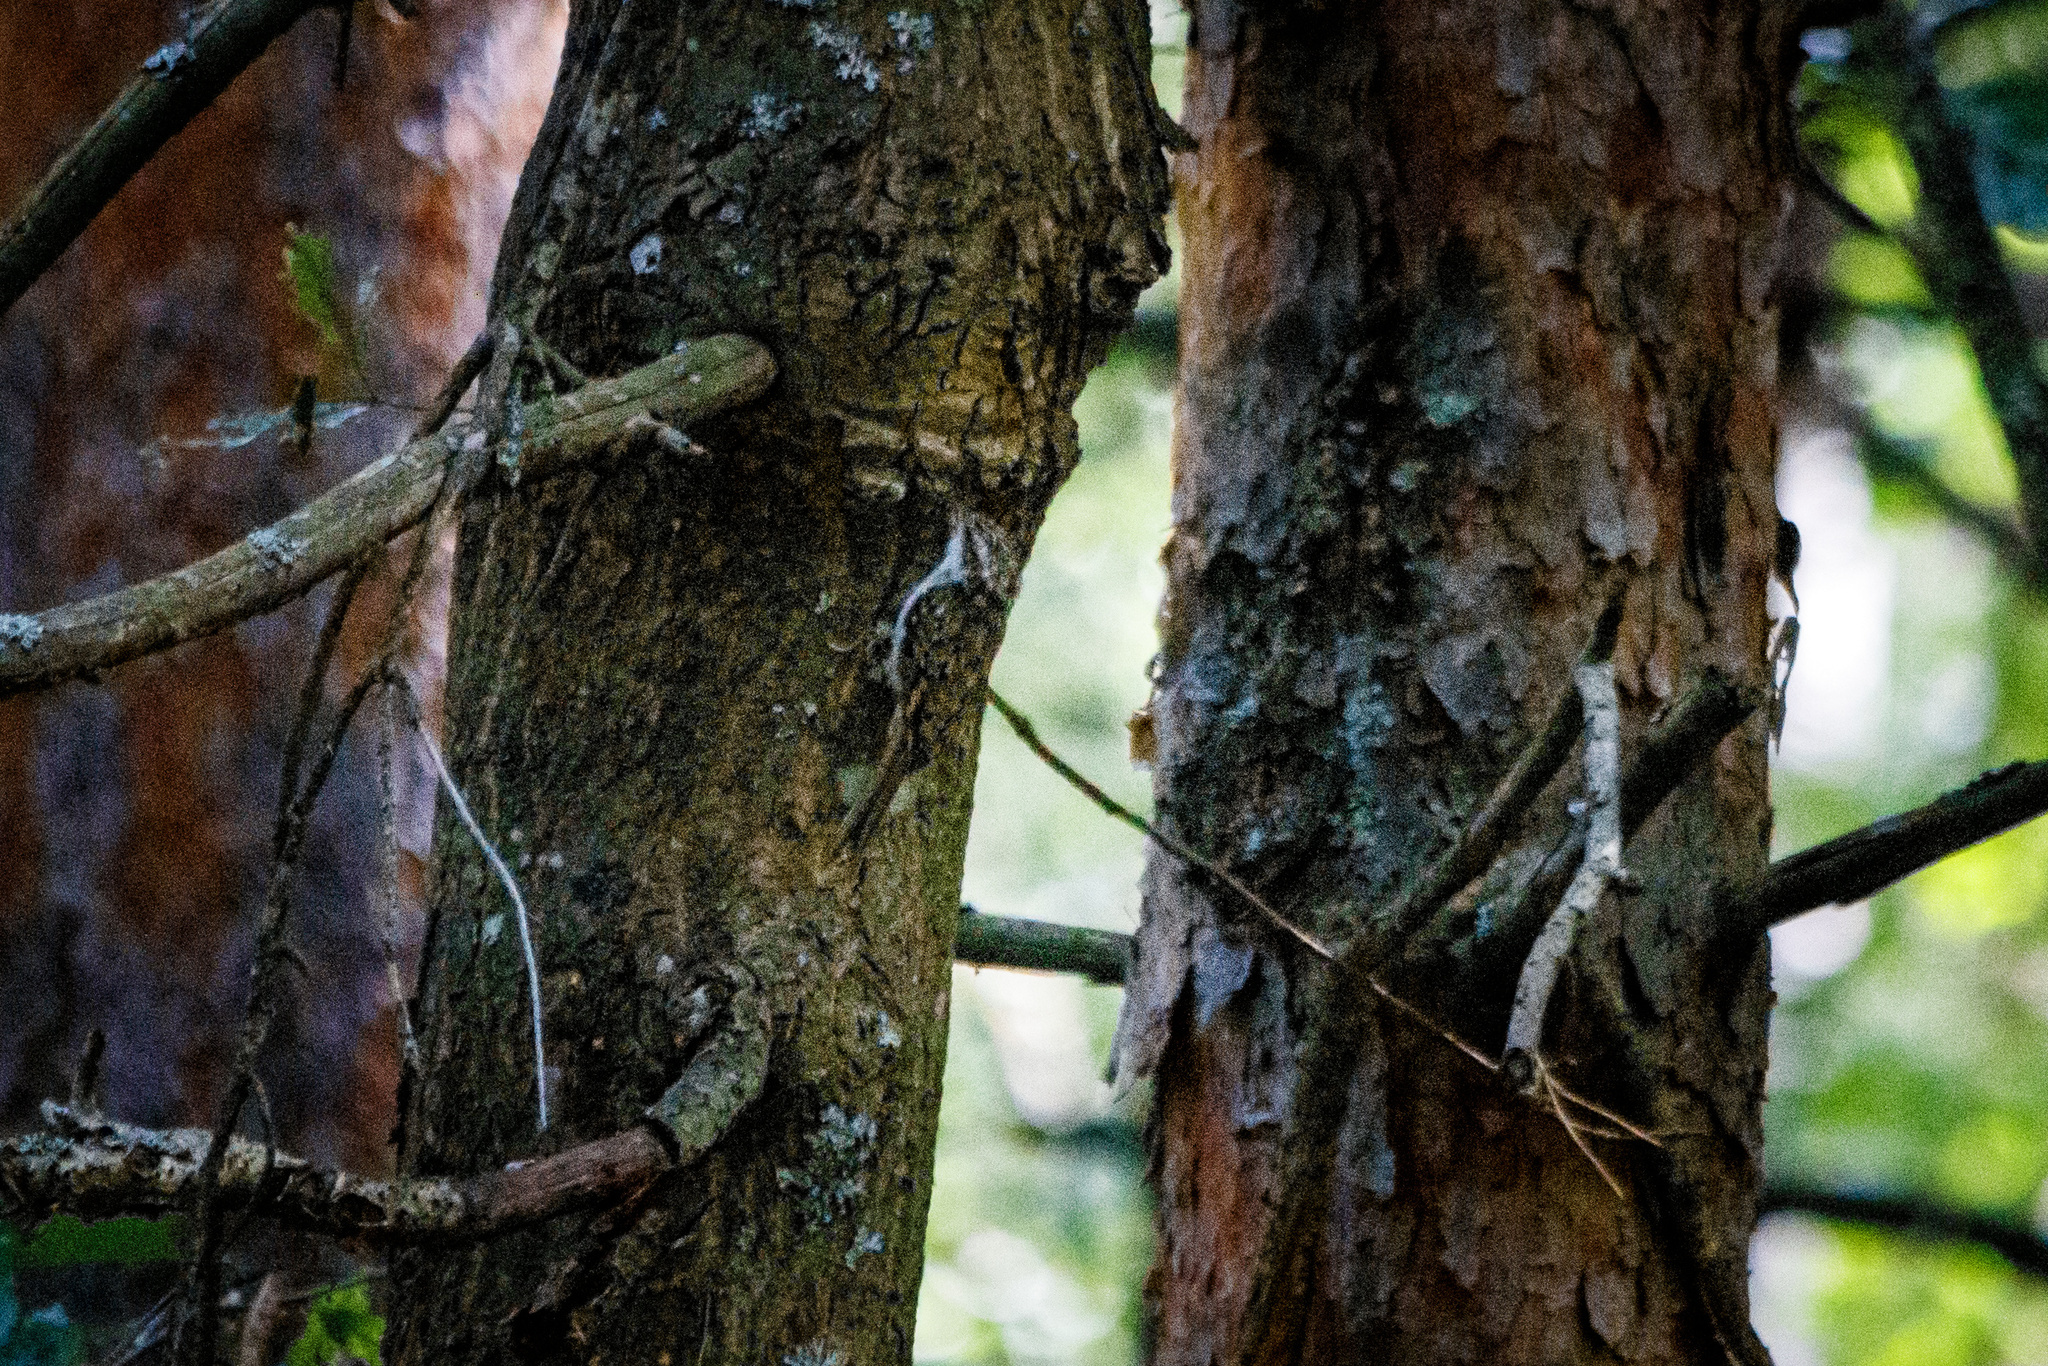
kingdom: Animalia
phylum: Chordata
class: Aves
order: Passeriformes
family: Certhiidae
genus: Certhia
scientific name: Certhia familiaris
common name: Eurasian treecreeper
